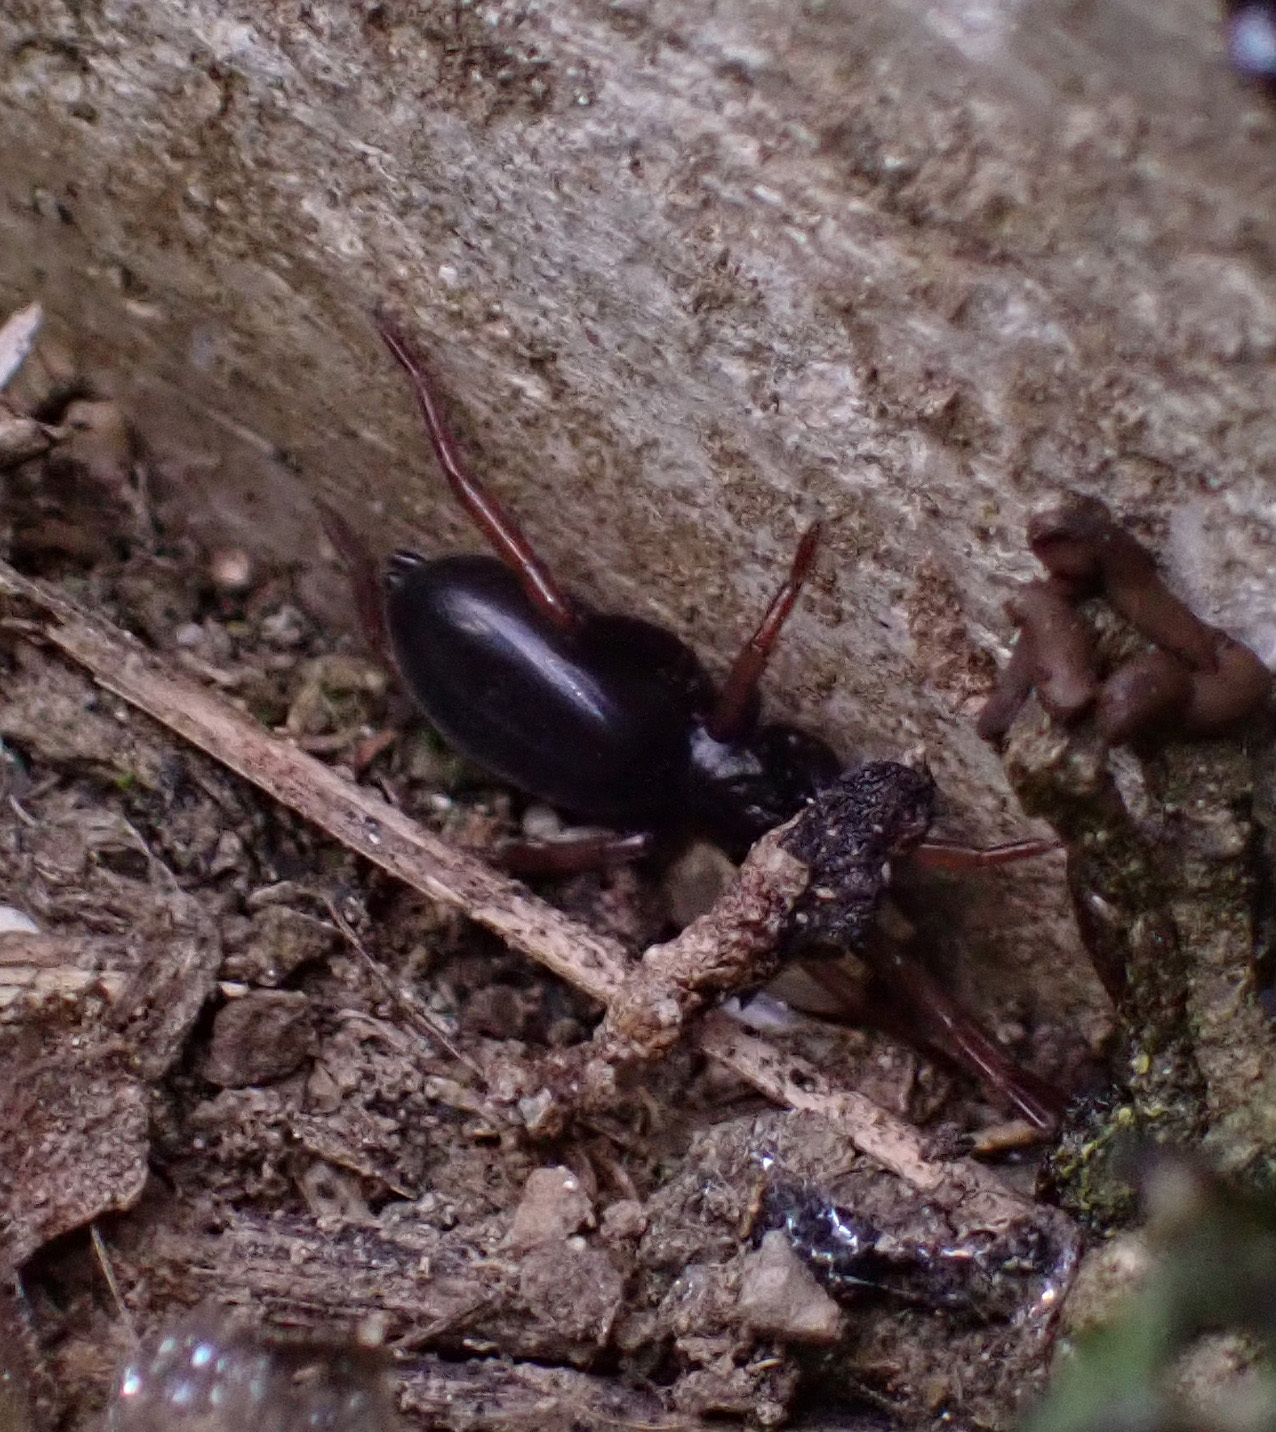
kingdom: Animalia
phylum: Arthropoda
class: Arachnida
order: Araneae
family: Gnaphosidae
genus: Trachyzelotes
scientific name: Trachyzelotes pedestris
